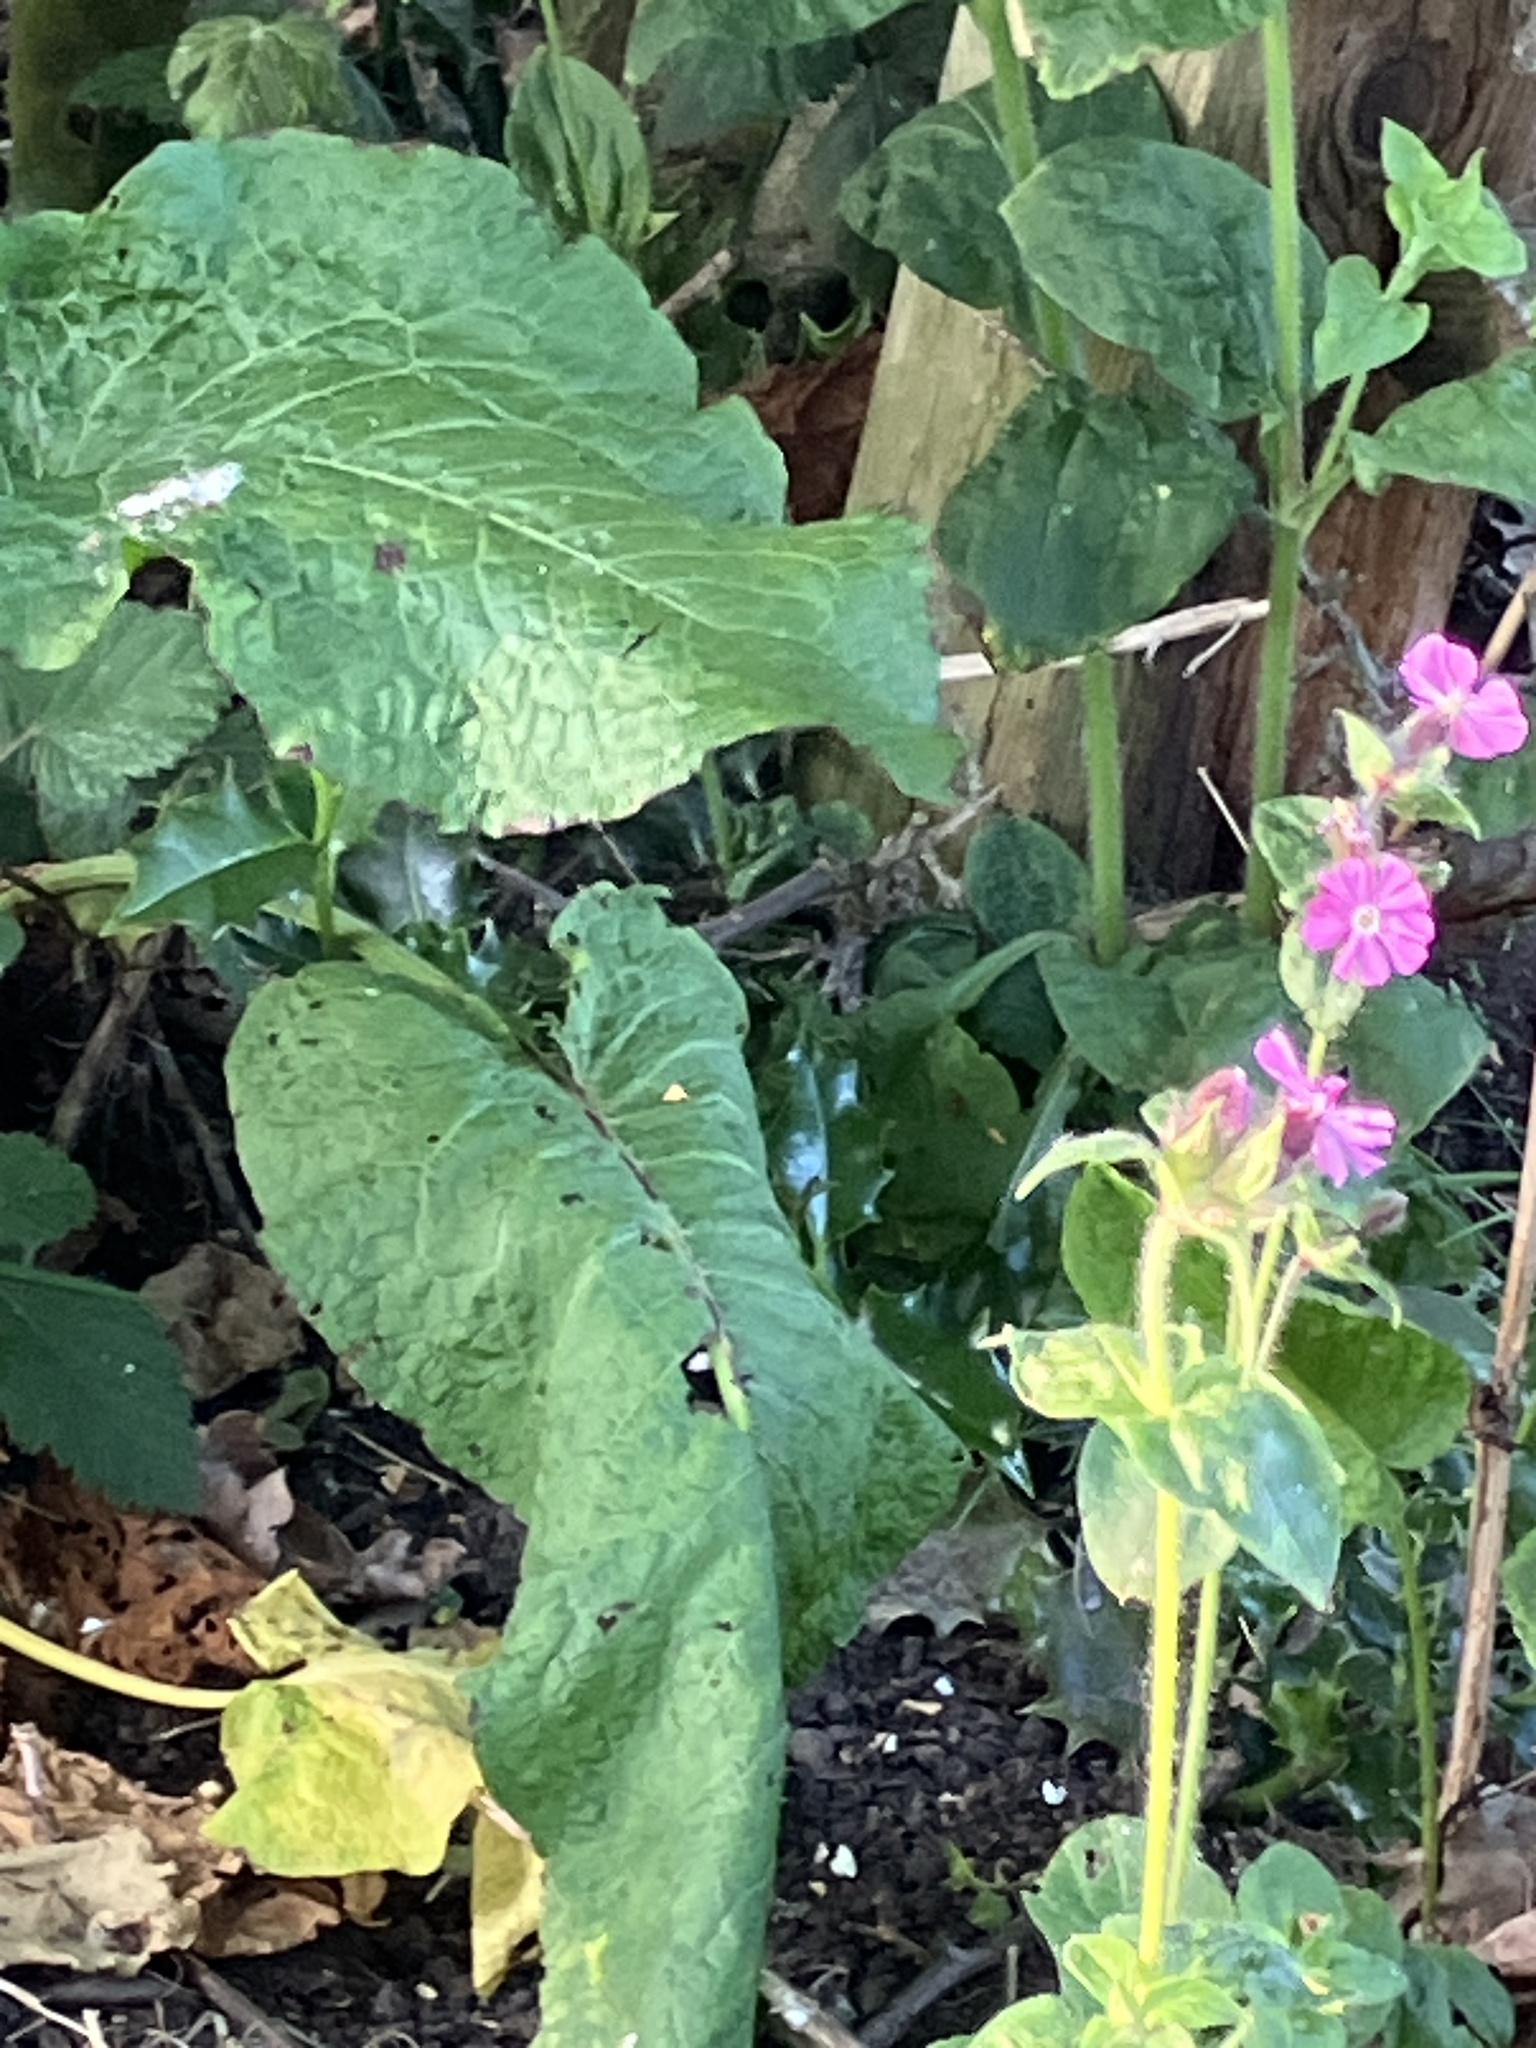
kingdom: Plantae
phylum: Tracheophyta
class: Magnoliopsida
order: Caryophyllales
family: Caryophyllaceae
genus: Silene
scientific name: Silene dioica
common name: Red campion
